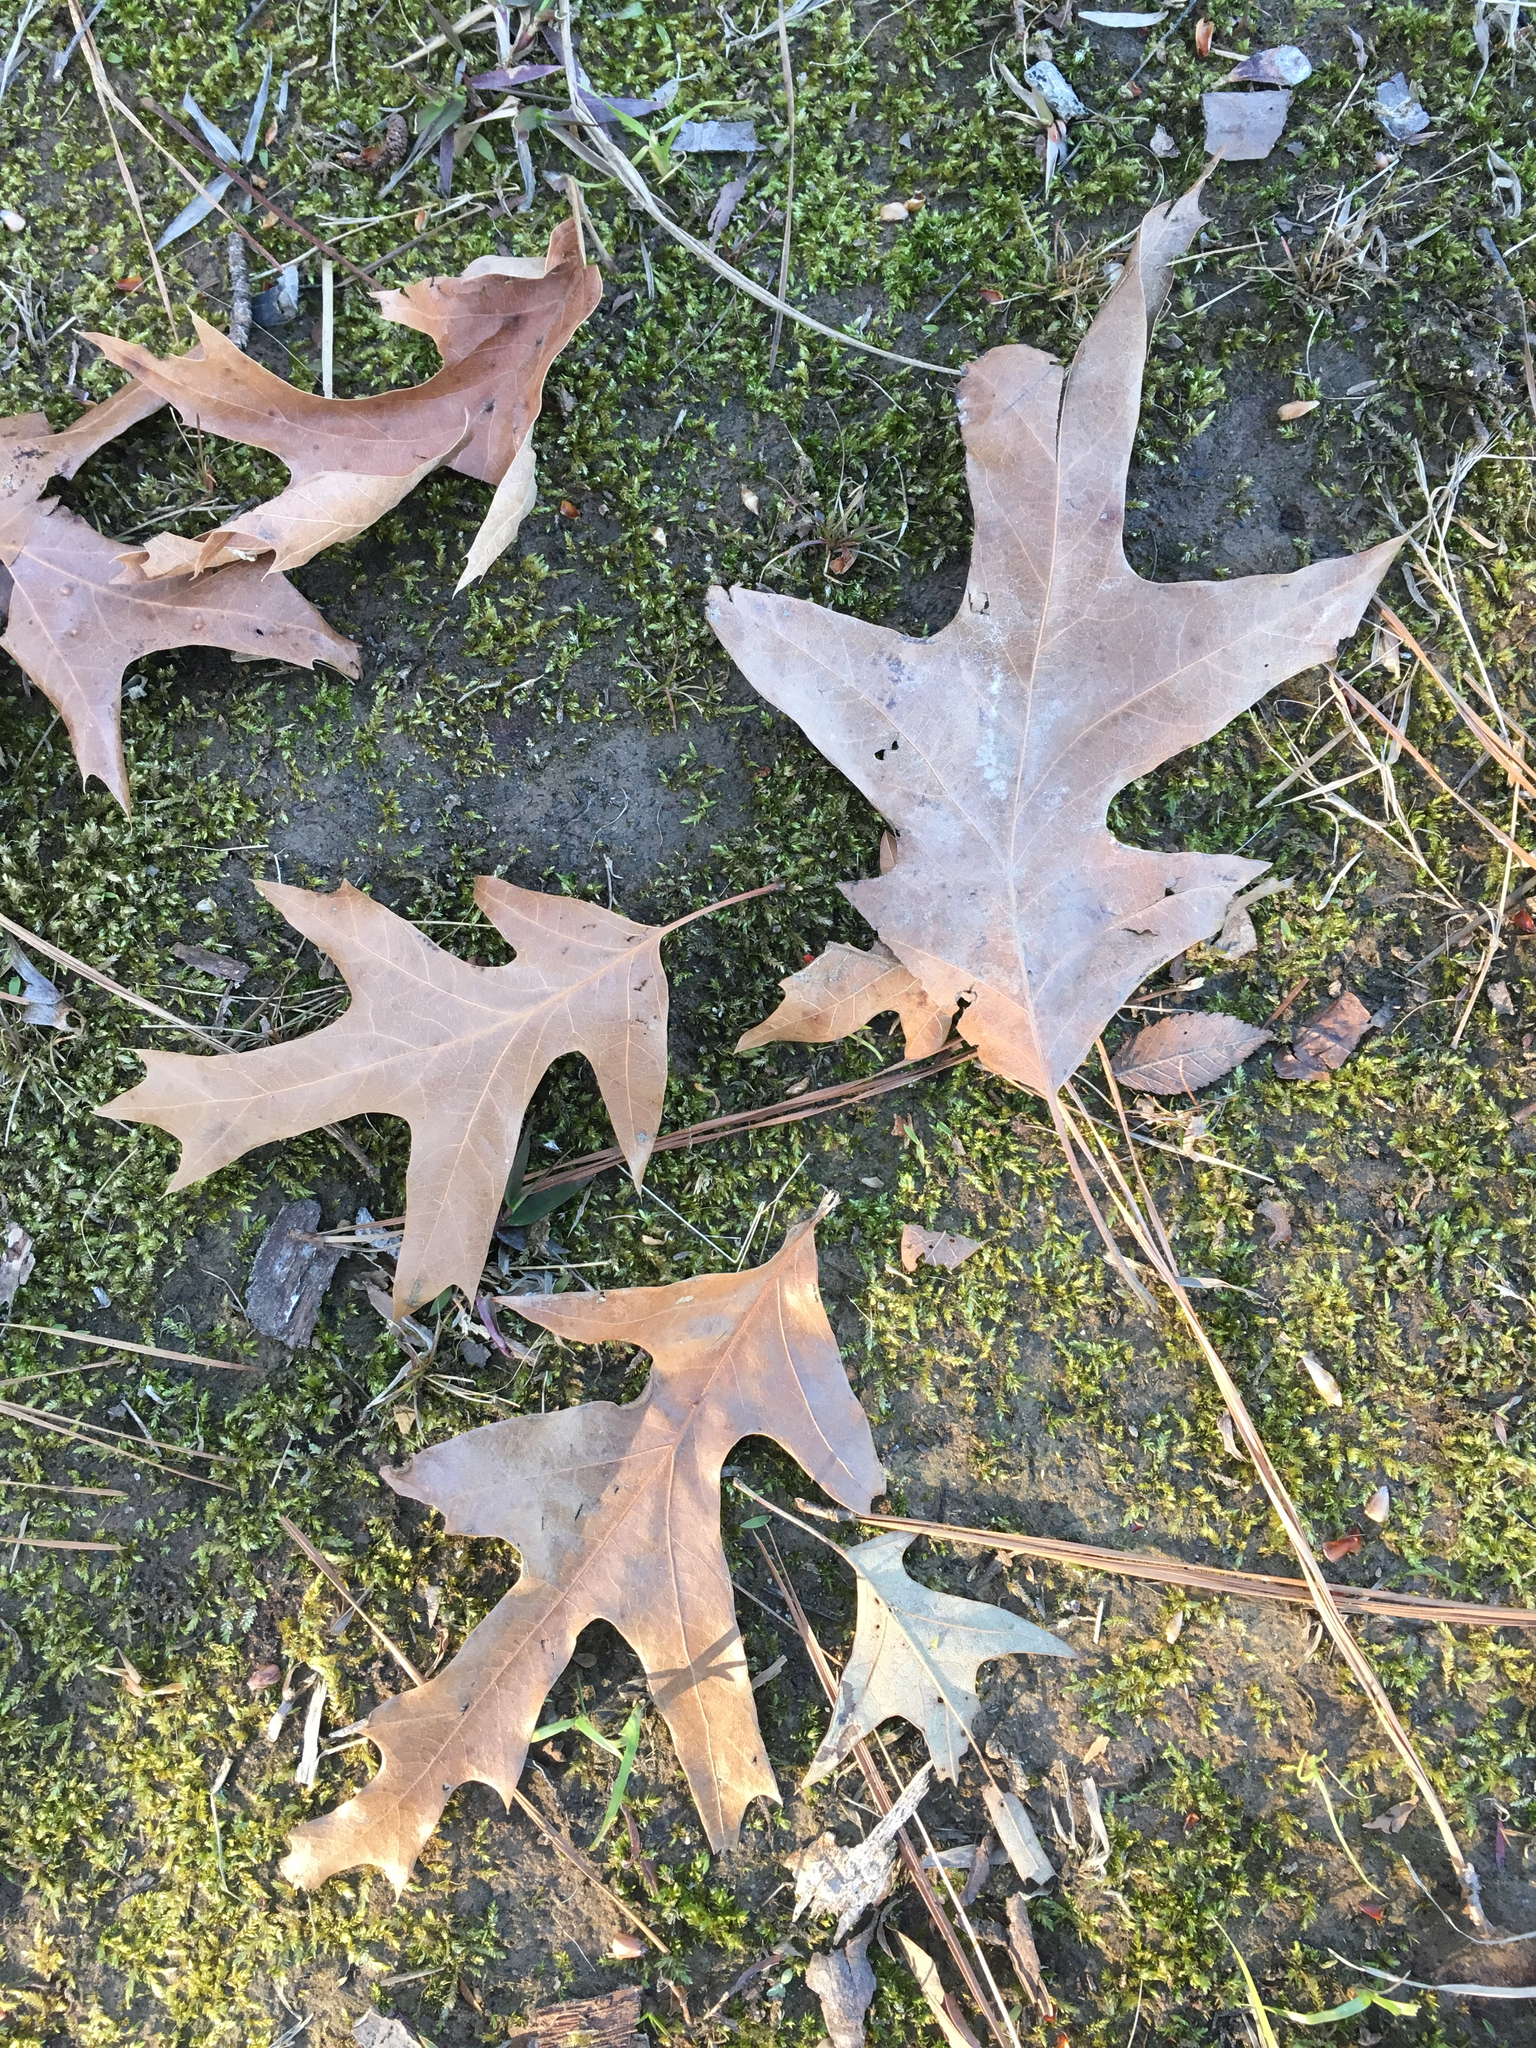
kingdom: Plantae
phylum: Tracheophyta
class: Magnoliopsida
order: Fagales
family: Fagaceae
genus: Quercus
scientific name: Quercus pagoda
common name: Cherrybark oak
